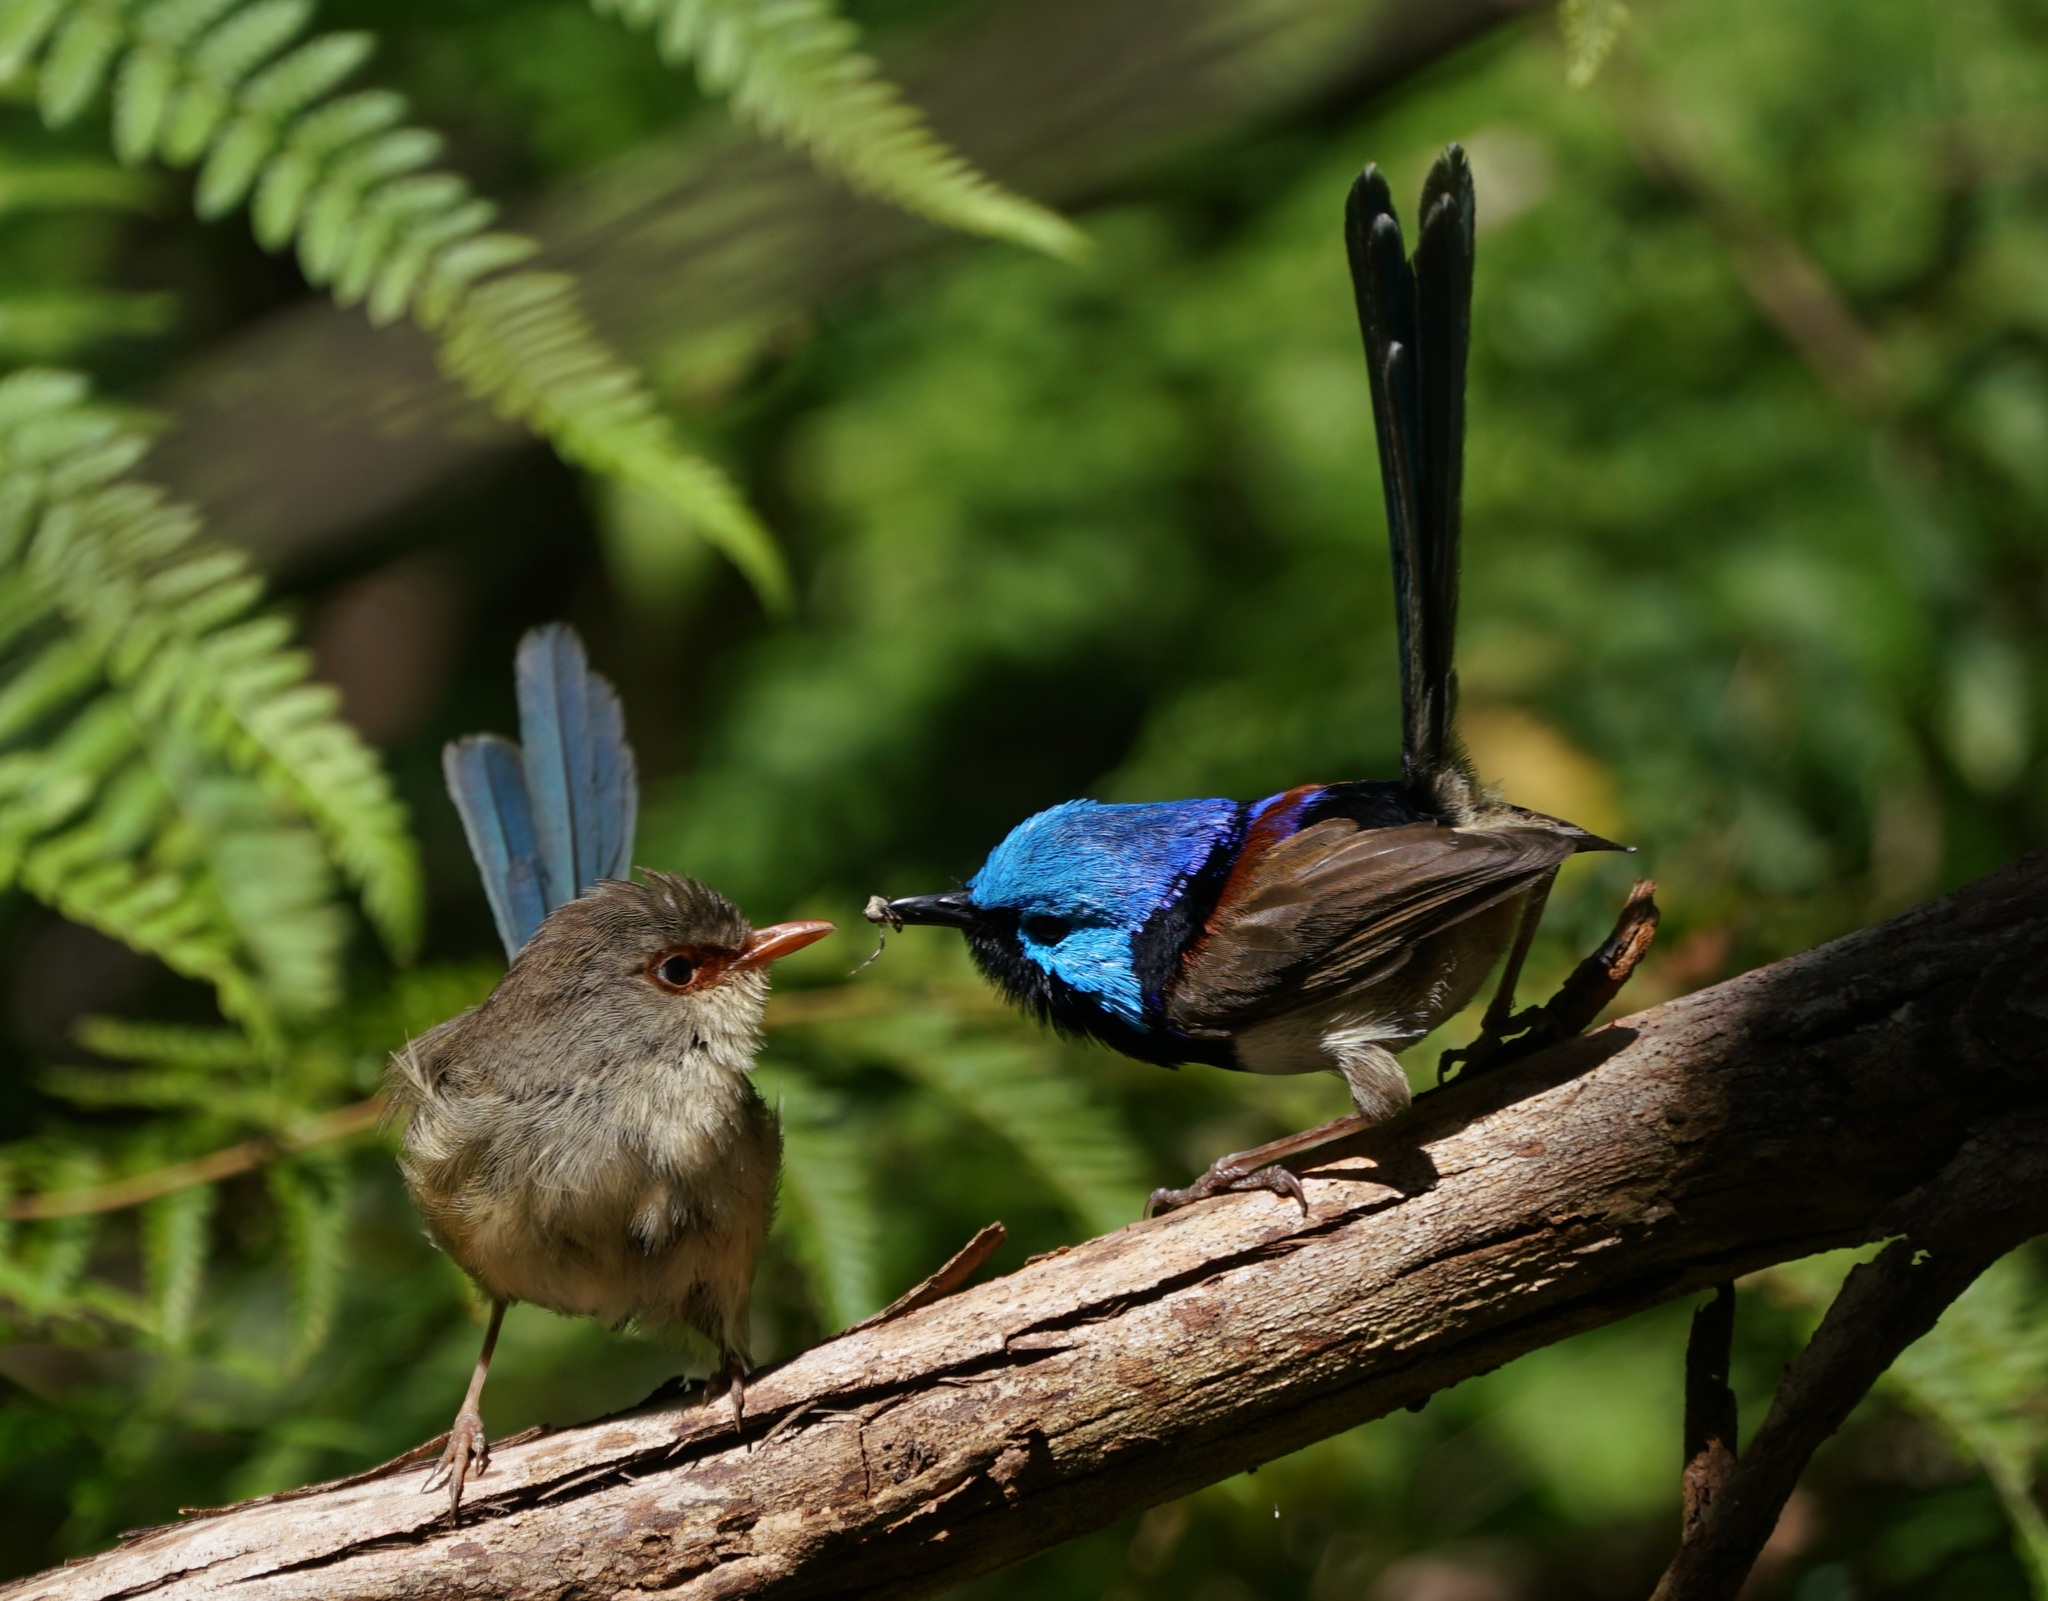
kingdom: Animalia
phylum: Chordata
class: Aves
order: Passeriformes
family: Maluridae
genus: Malurus
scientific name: Malurus lamberti
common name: Variegated fairywren
